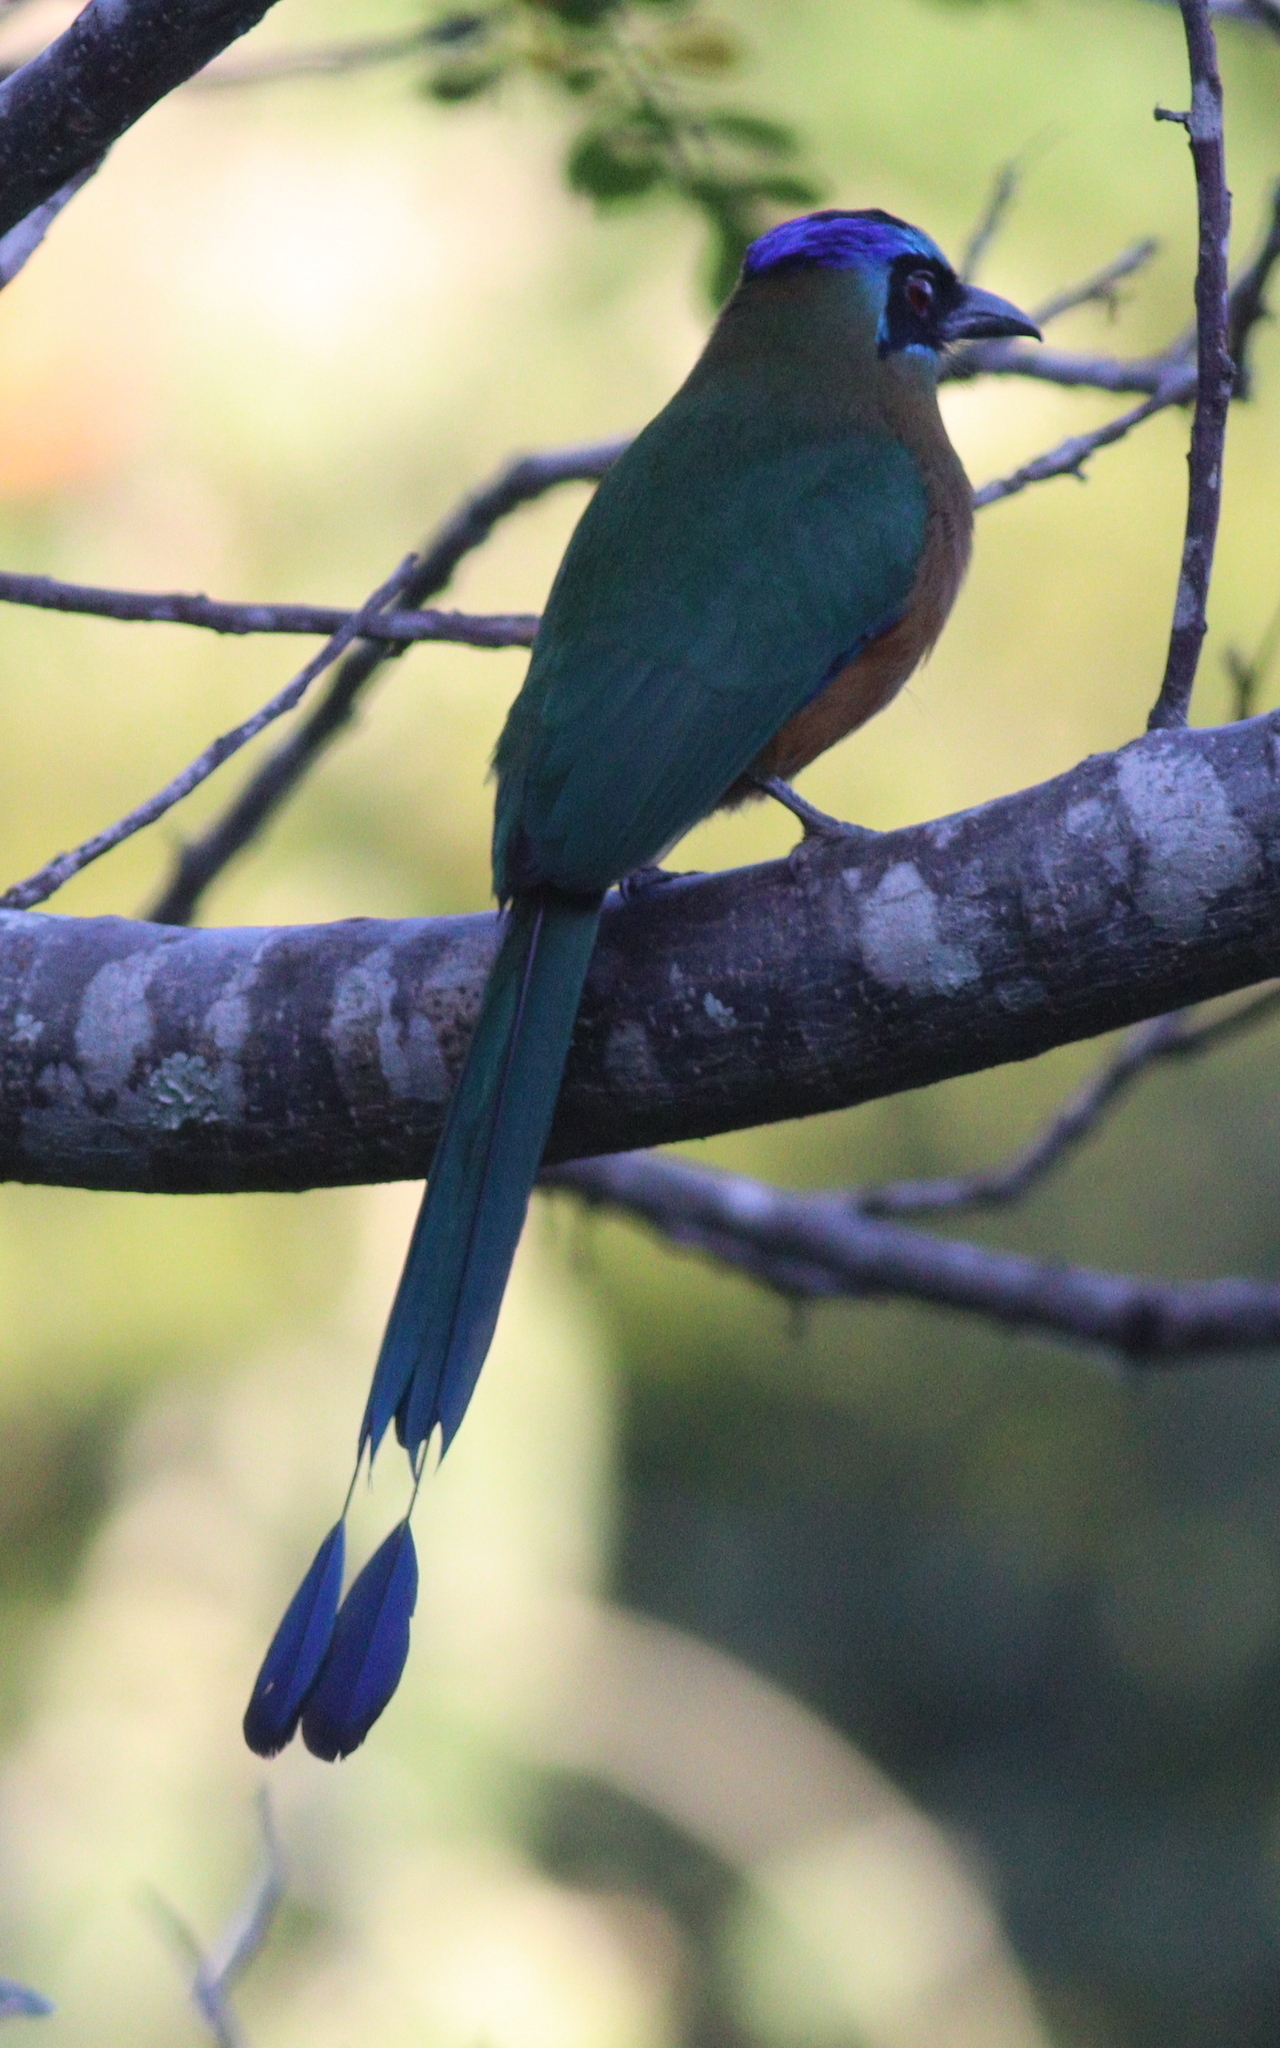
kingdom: Animalia
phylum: Chordata
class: Aves
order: Coraciiformes
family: Momotidae
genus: Momotus
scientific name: Momotus momota
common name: Amazonian motmot
